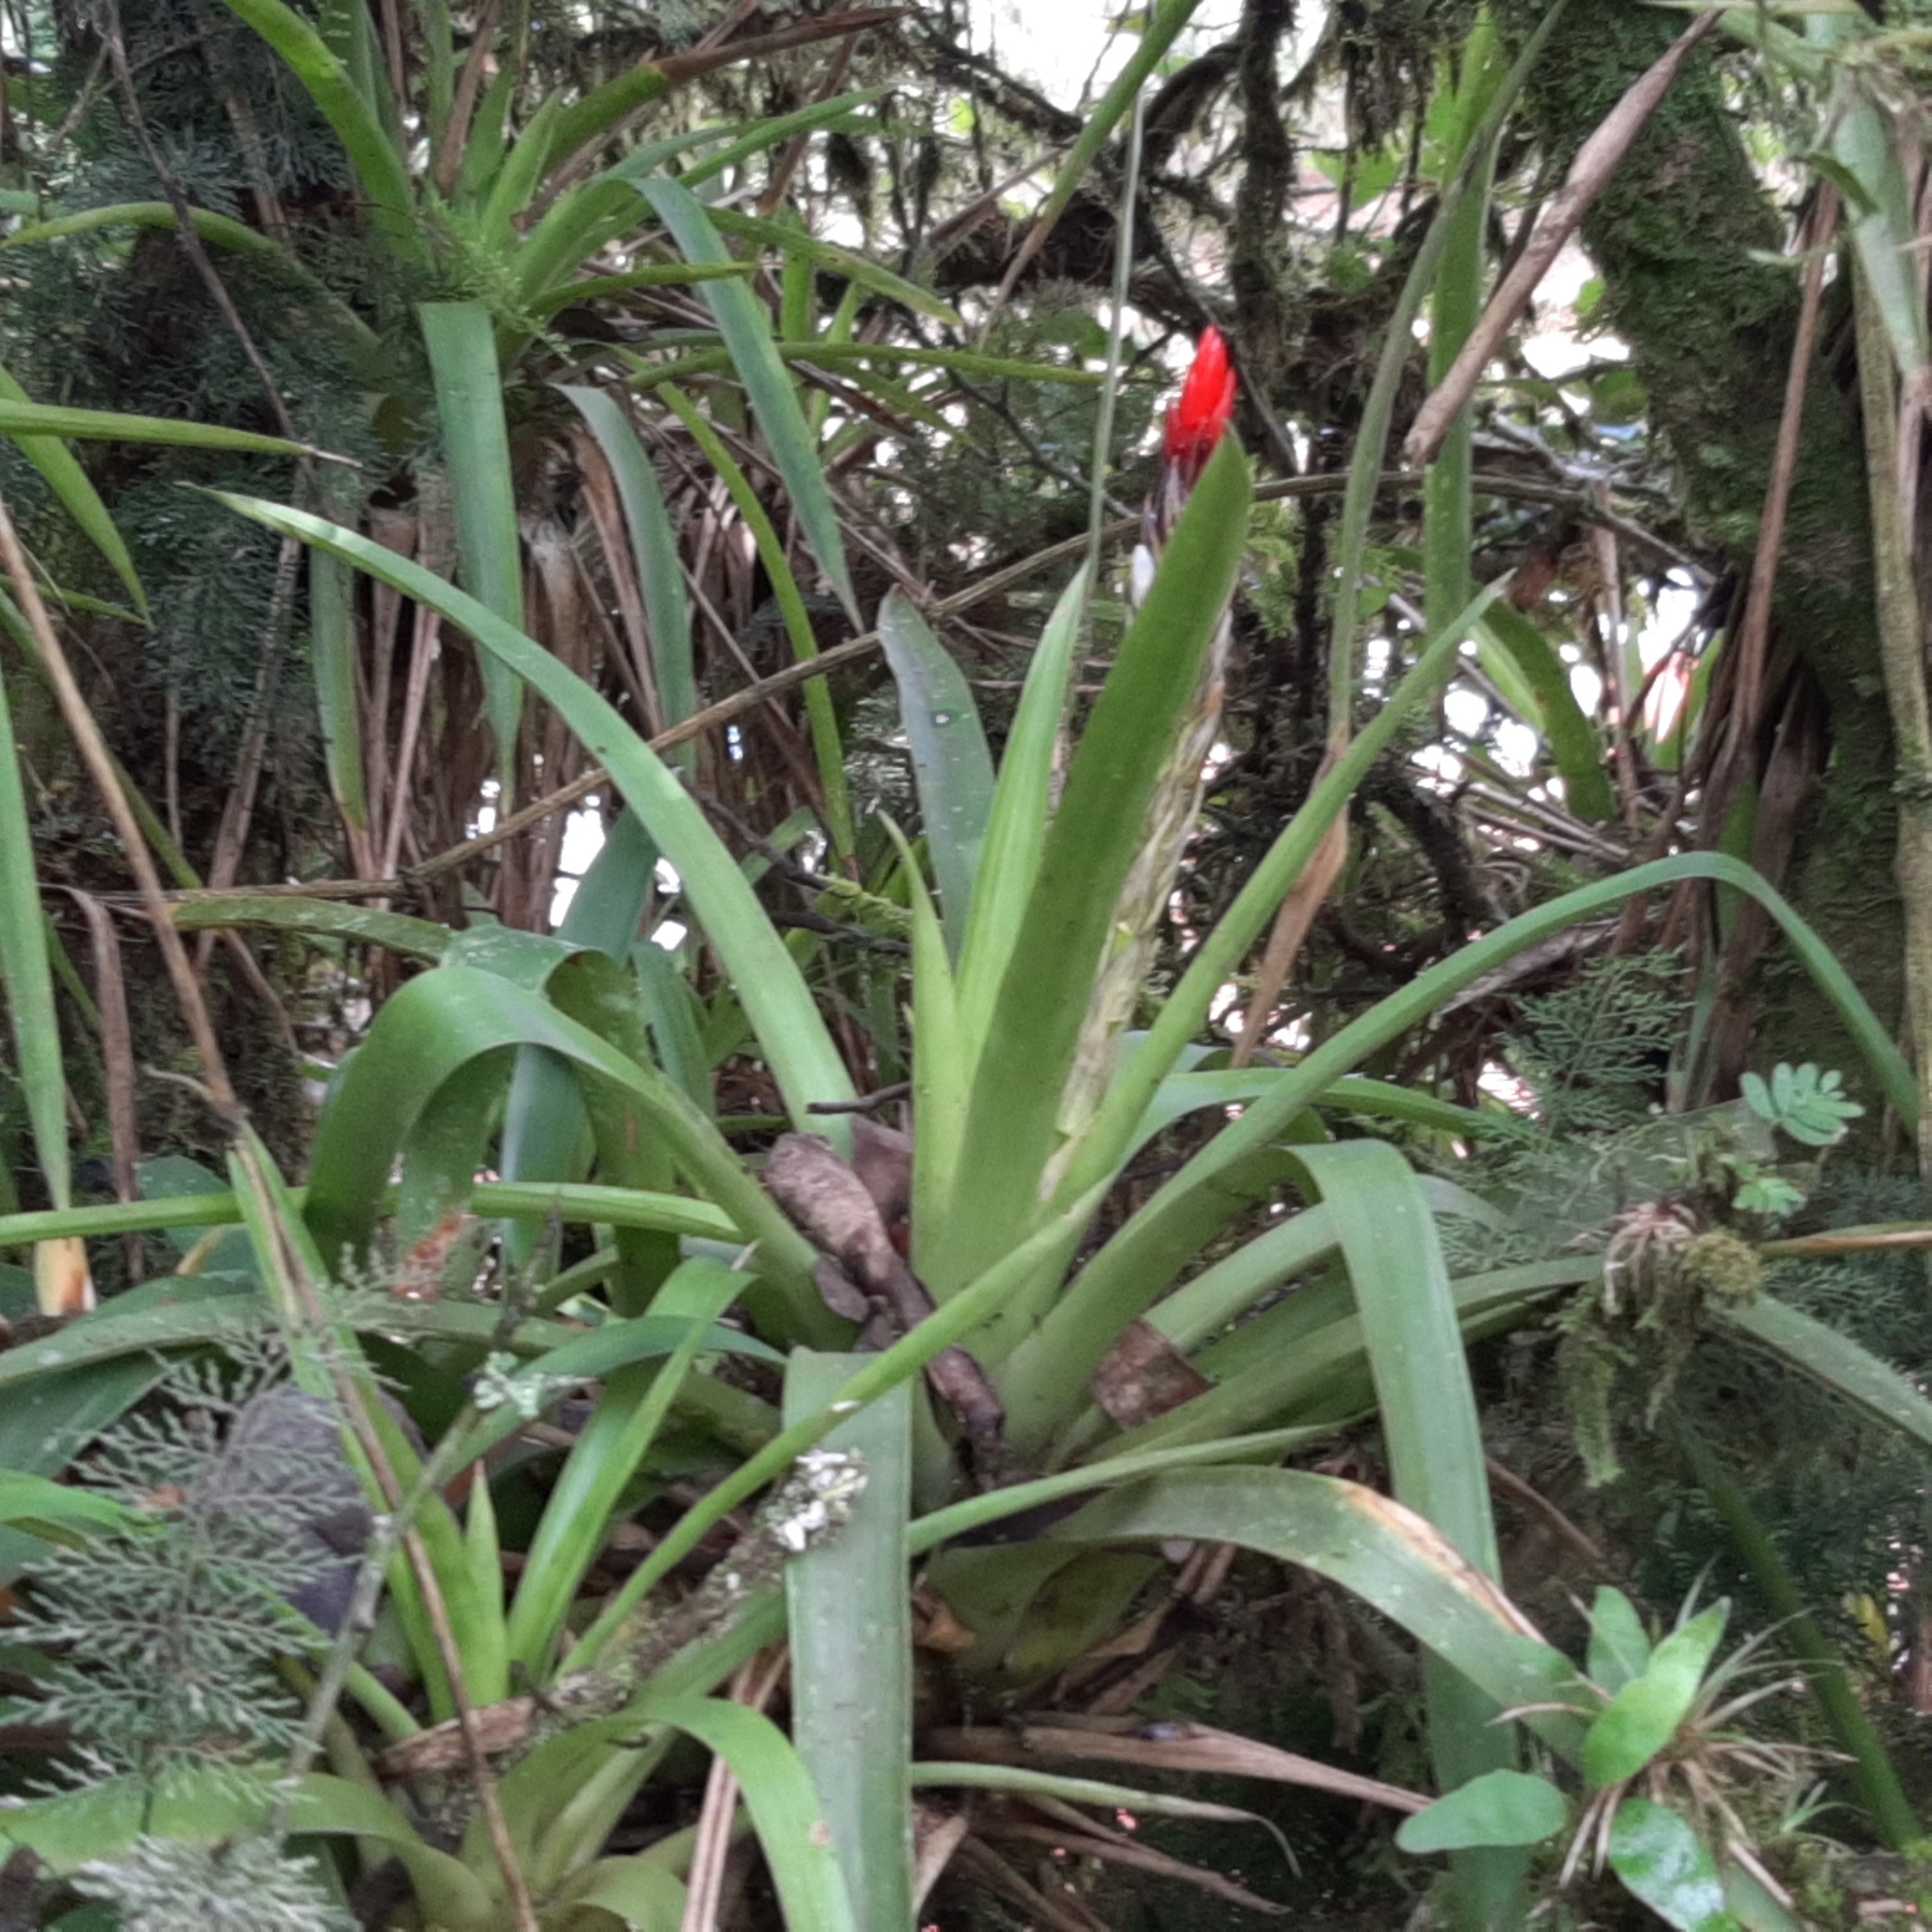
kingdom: Plantae
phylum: Tracheophyta
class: Liliopsida
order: Poales
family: Bromeliaceae
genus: Guzmania
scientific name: Guzmania monostachia
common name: West indian tufted airplant
